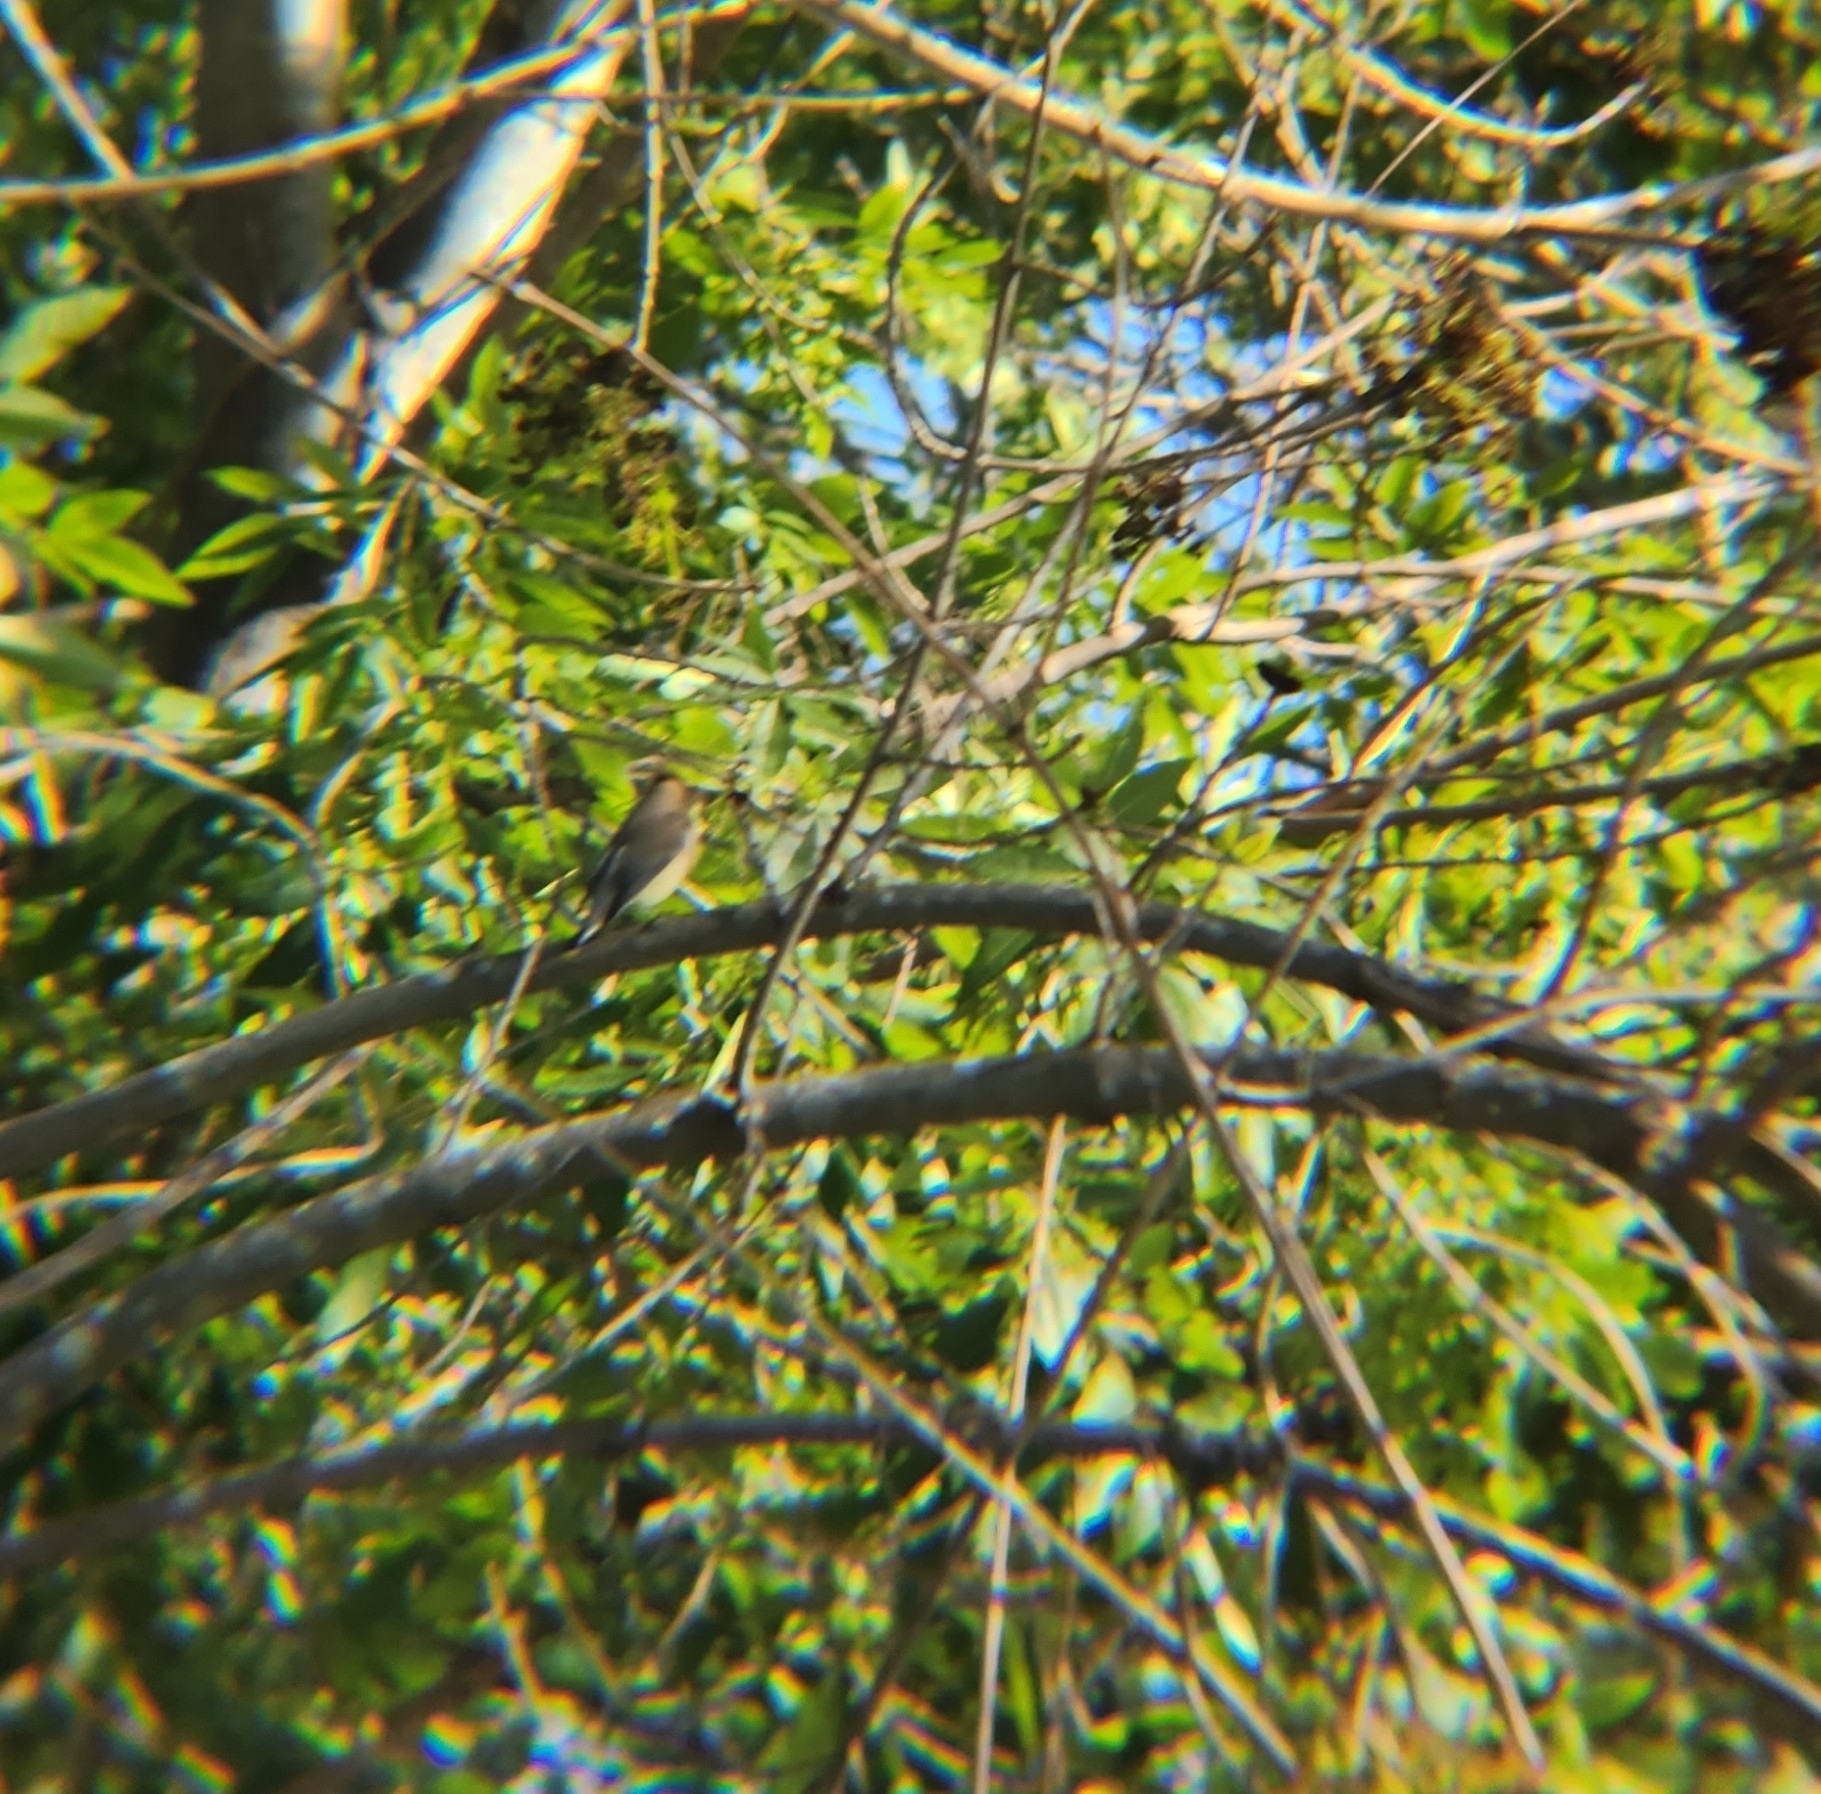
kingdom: Animalia
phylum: Chordata
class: Aves
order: Passeriformes
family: Bombycillidae
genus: Bombycilla
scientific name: Bombycilla cedrorum
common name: Cedar waxwing
